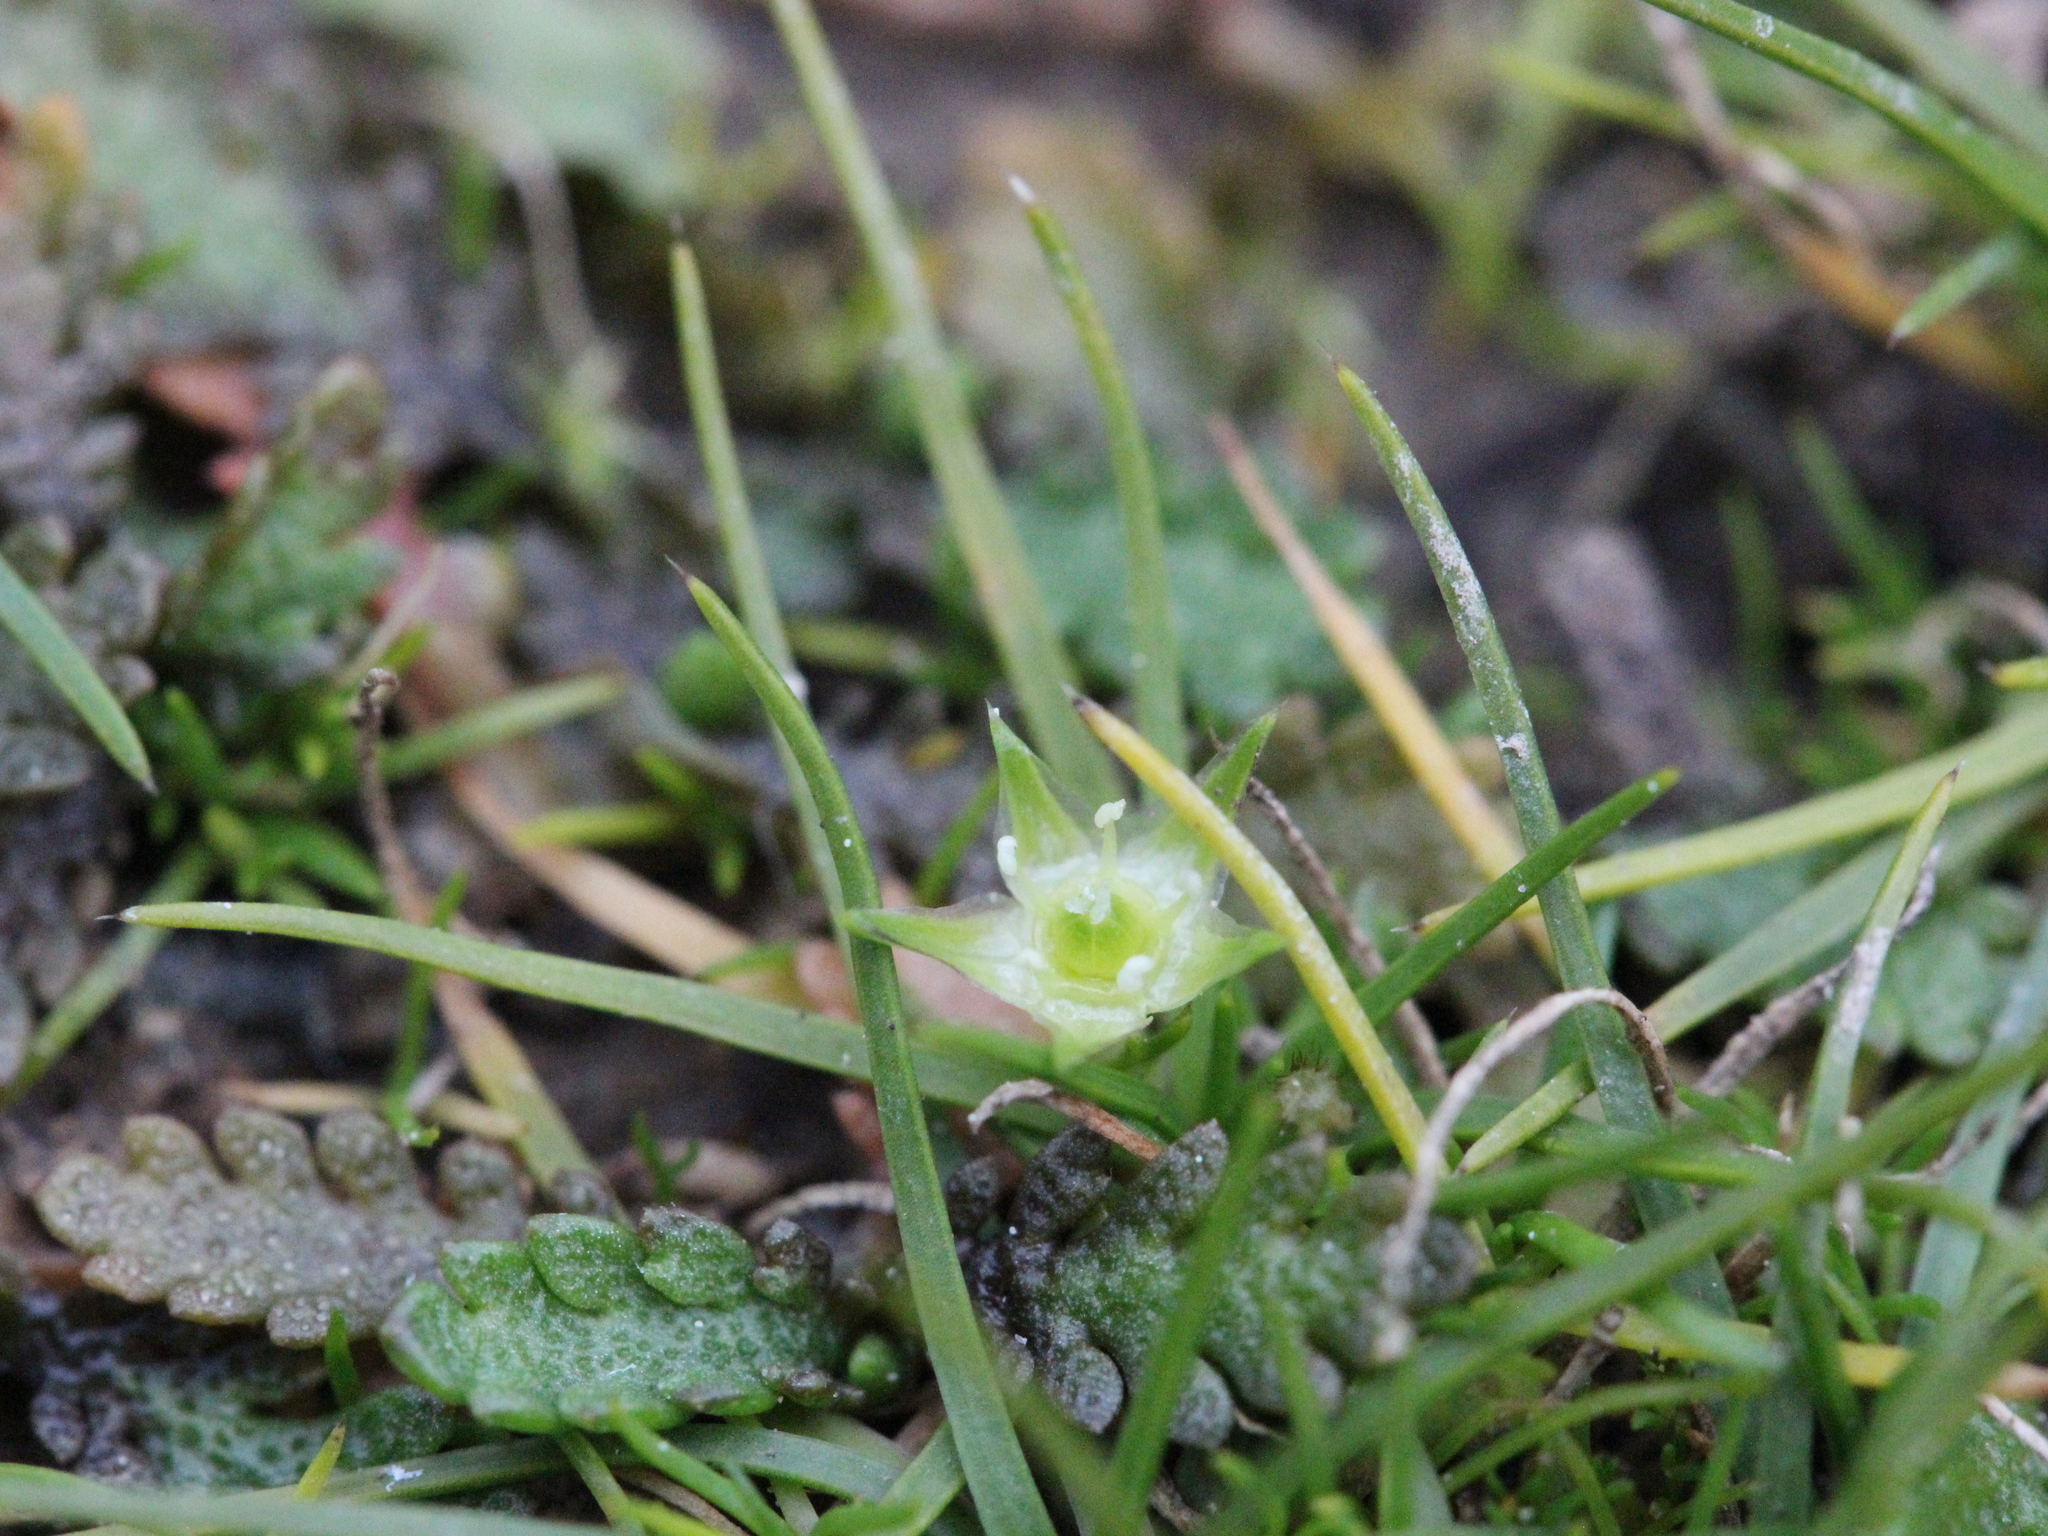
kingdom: Plantae
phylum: Tracheophyta
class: Magnoliopsida
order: Caryophyllales
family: Caryophyllaceae
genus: Colobanthus
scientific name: Colobanthus muelleri
